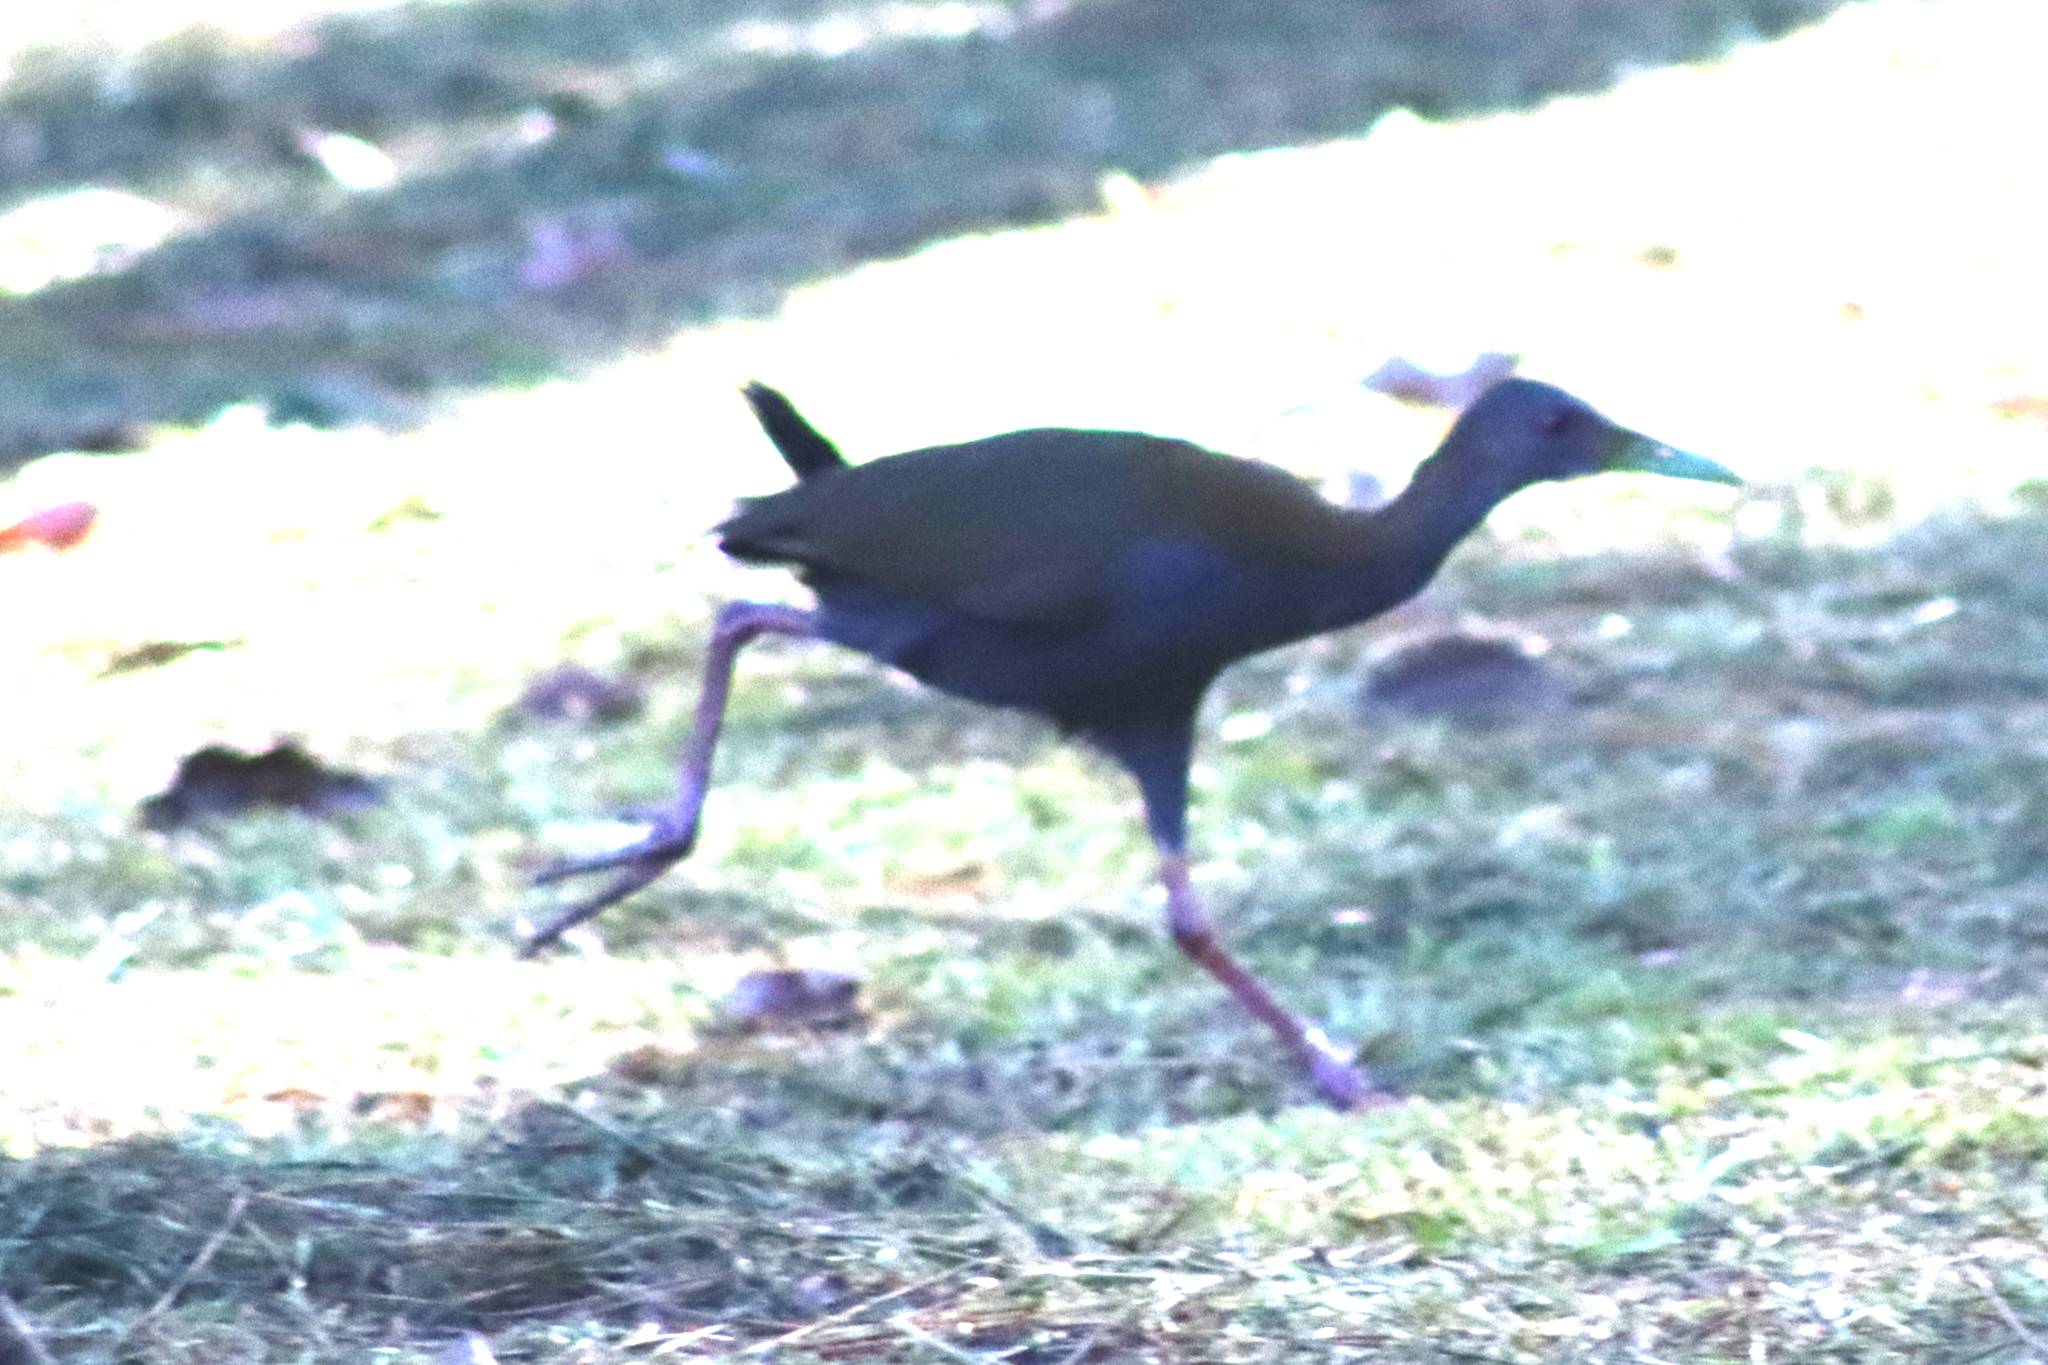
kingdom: Animalia
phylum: Chordata
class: Aves
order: Gruiformes
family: Rallidae
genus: Aramides
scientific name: Aramides saracura
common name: Slaty-breasted wood rail
